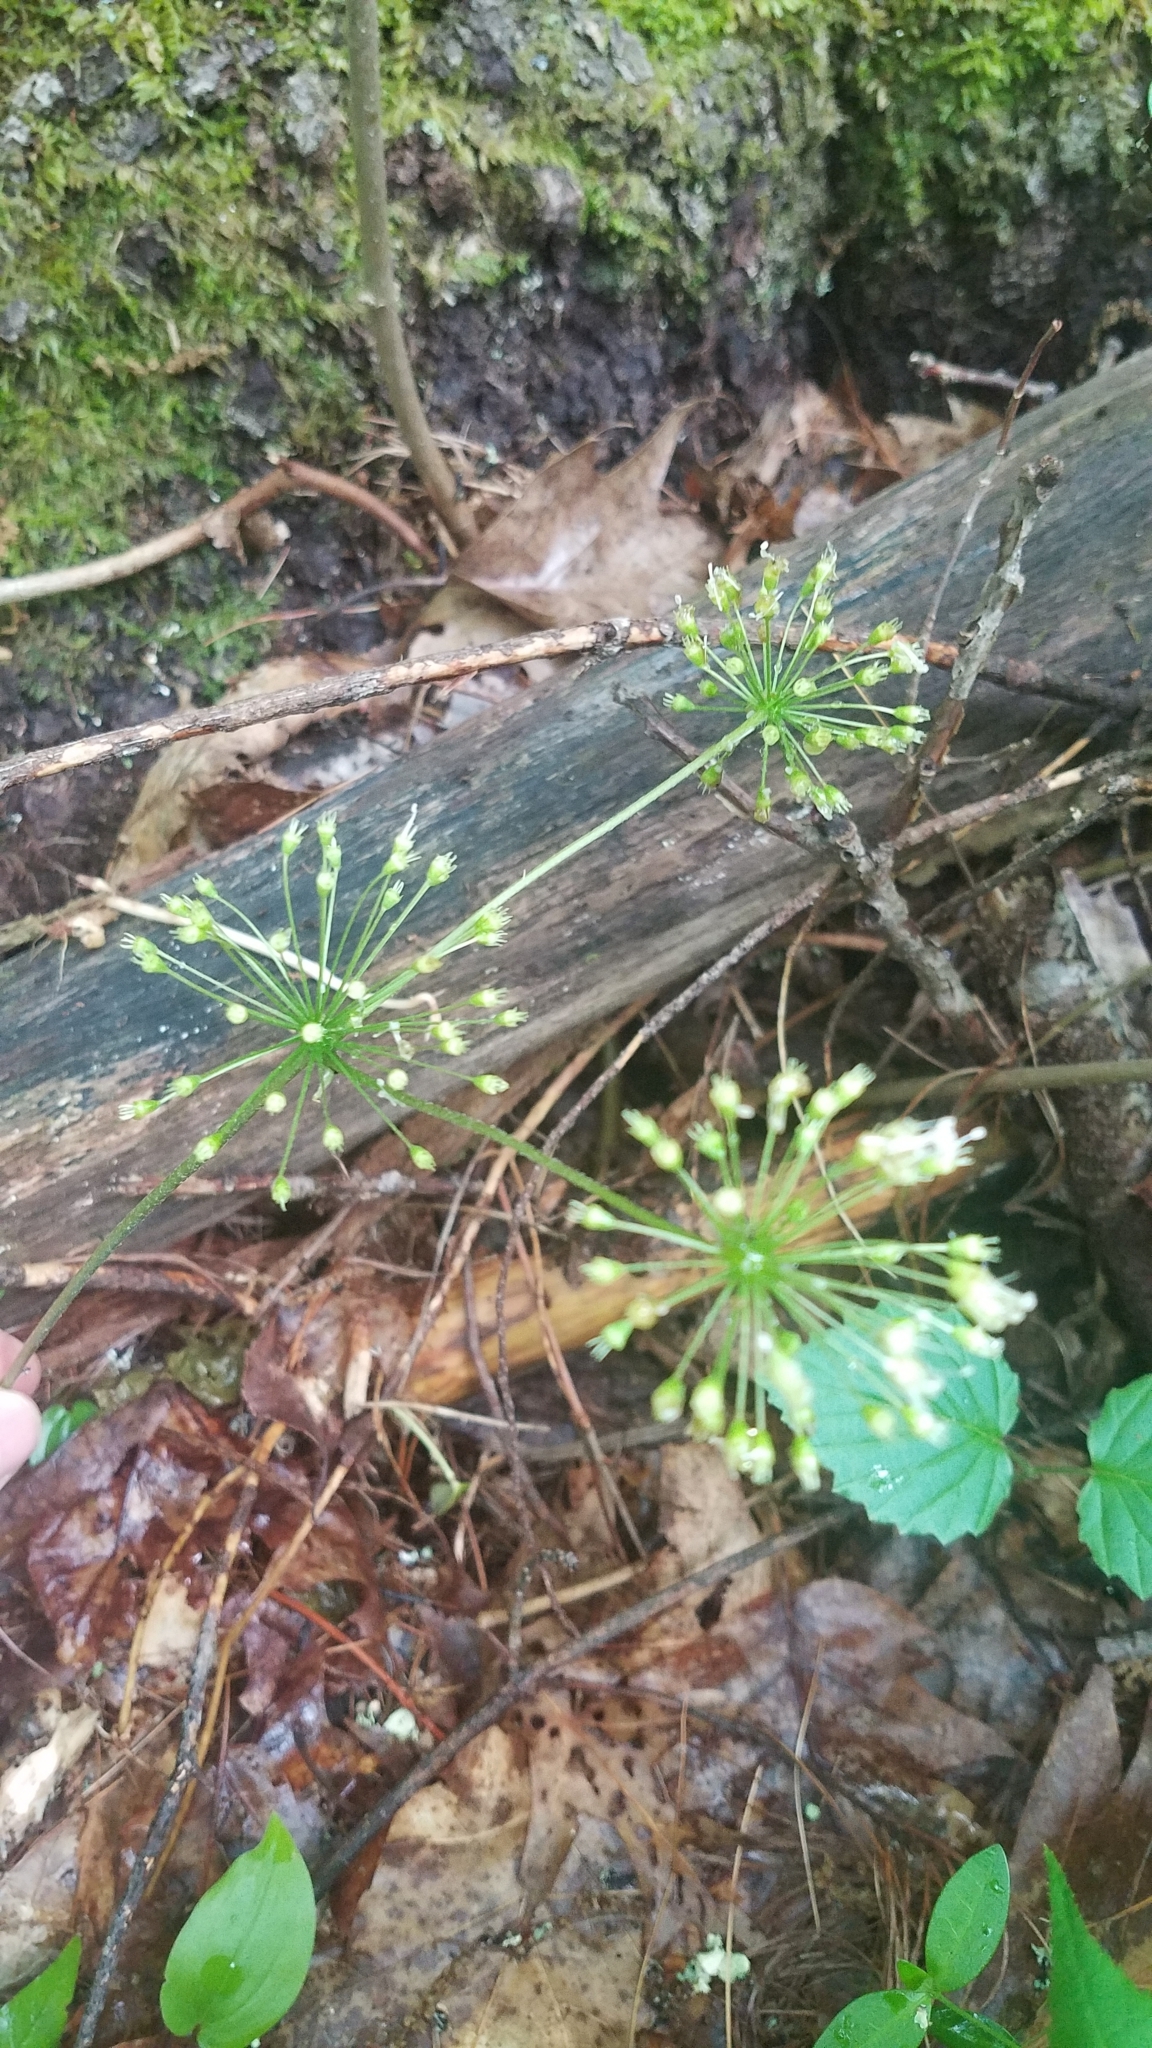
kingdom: Plantae
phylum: Tracheophyta
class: Magnoliopsida
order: Apiales
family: Araliaceae
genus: Aralia
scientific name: Aralia nudicaulis
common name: Wild sarsaparilla
